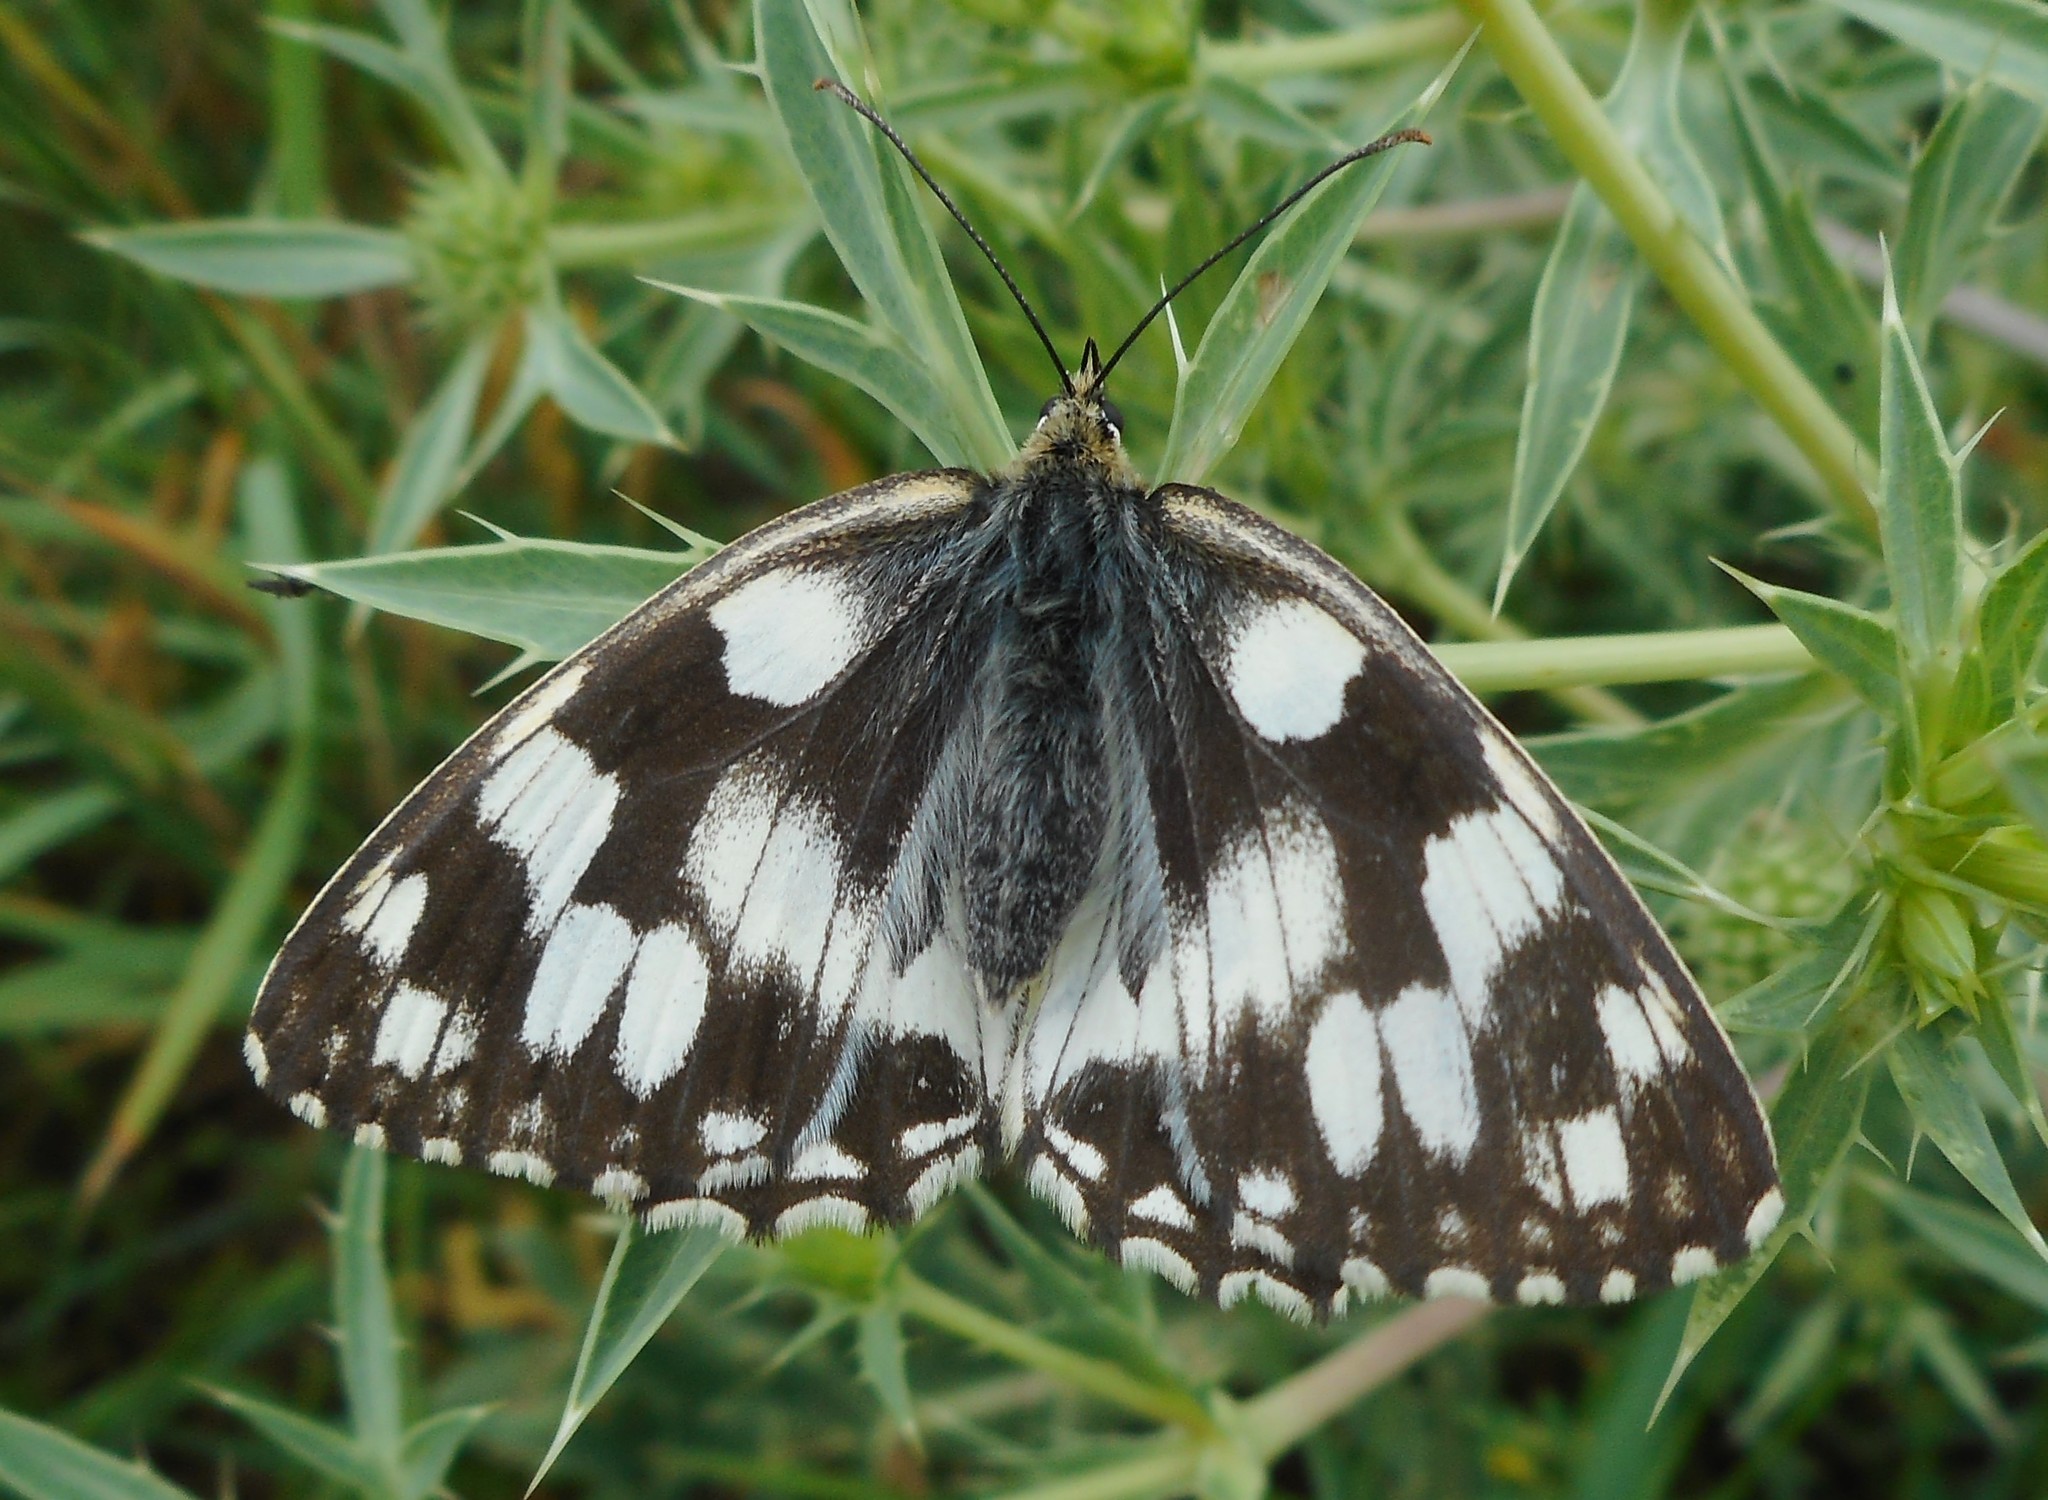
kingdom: Animalia
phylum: Arthropoda
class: Insecta
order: Lepidoptera
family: Nymphalidae
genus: Melanargia
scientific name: Melanargia galathea
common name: Marbled white
